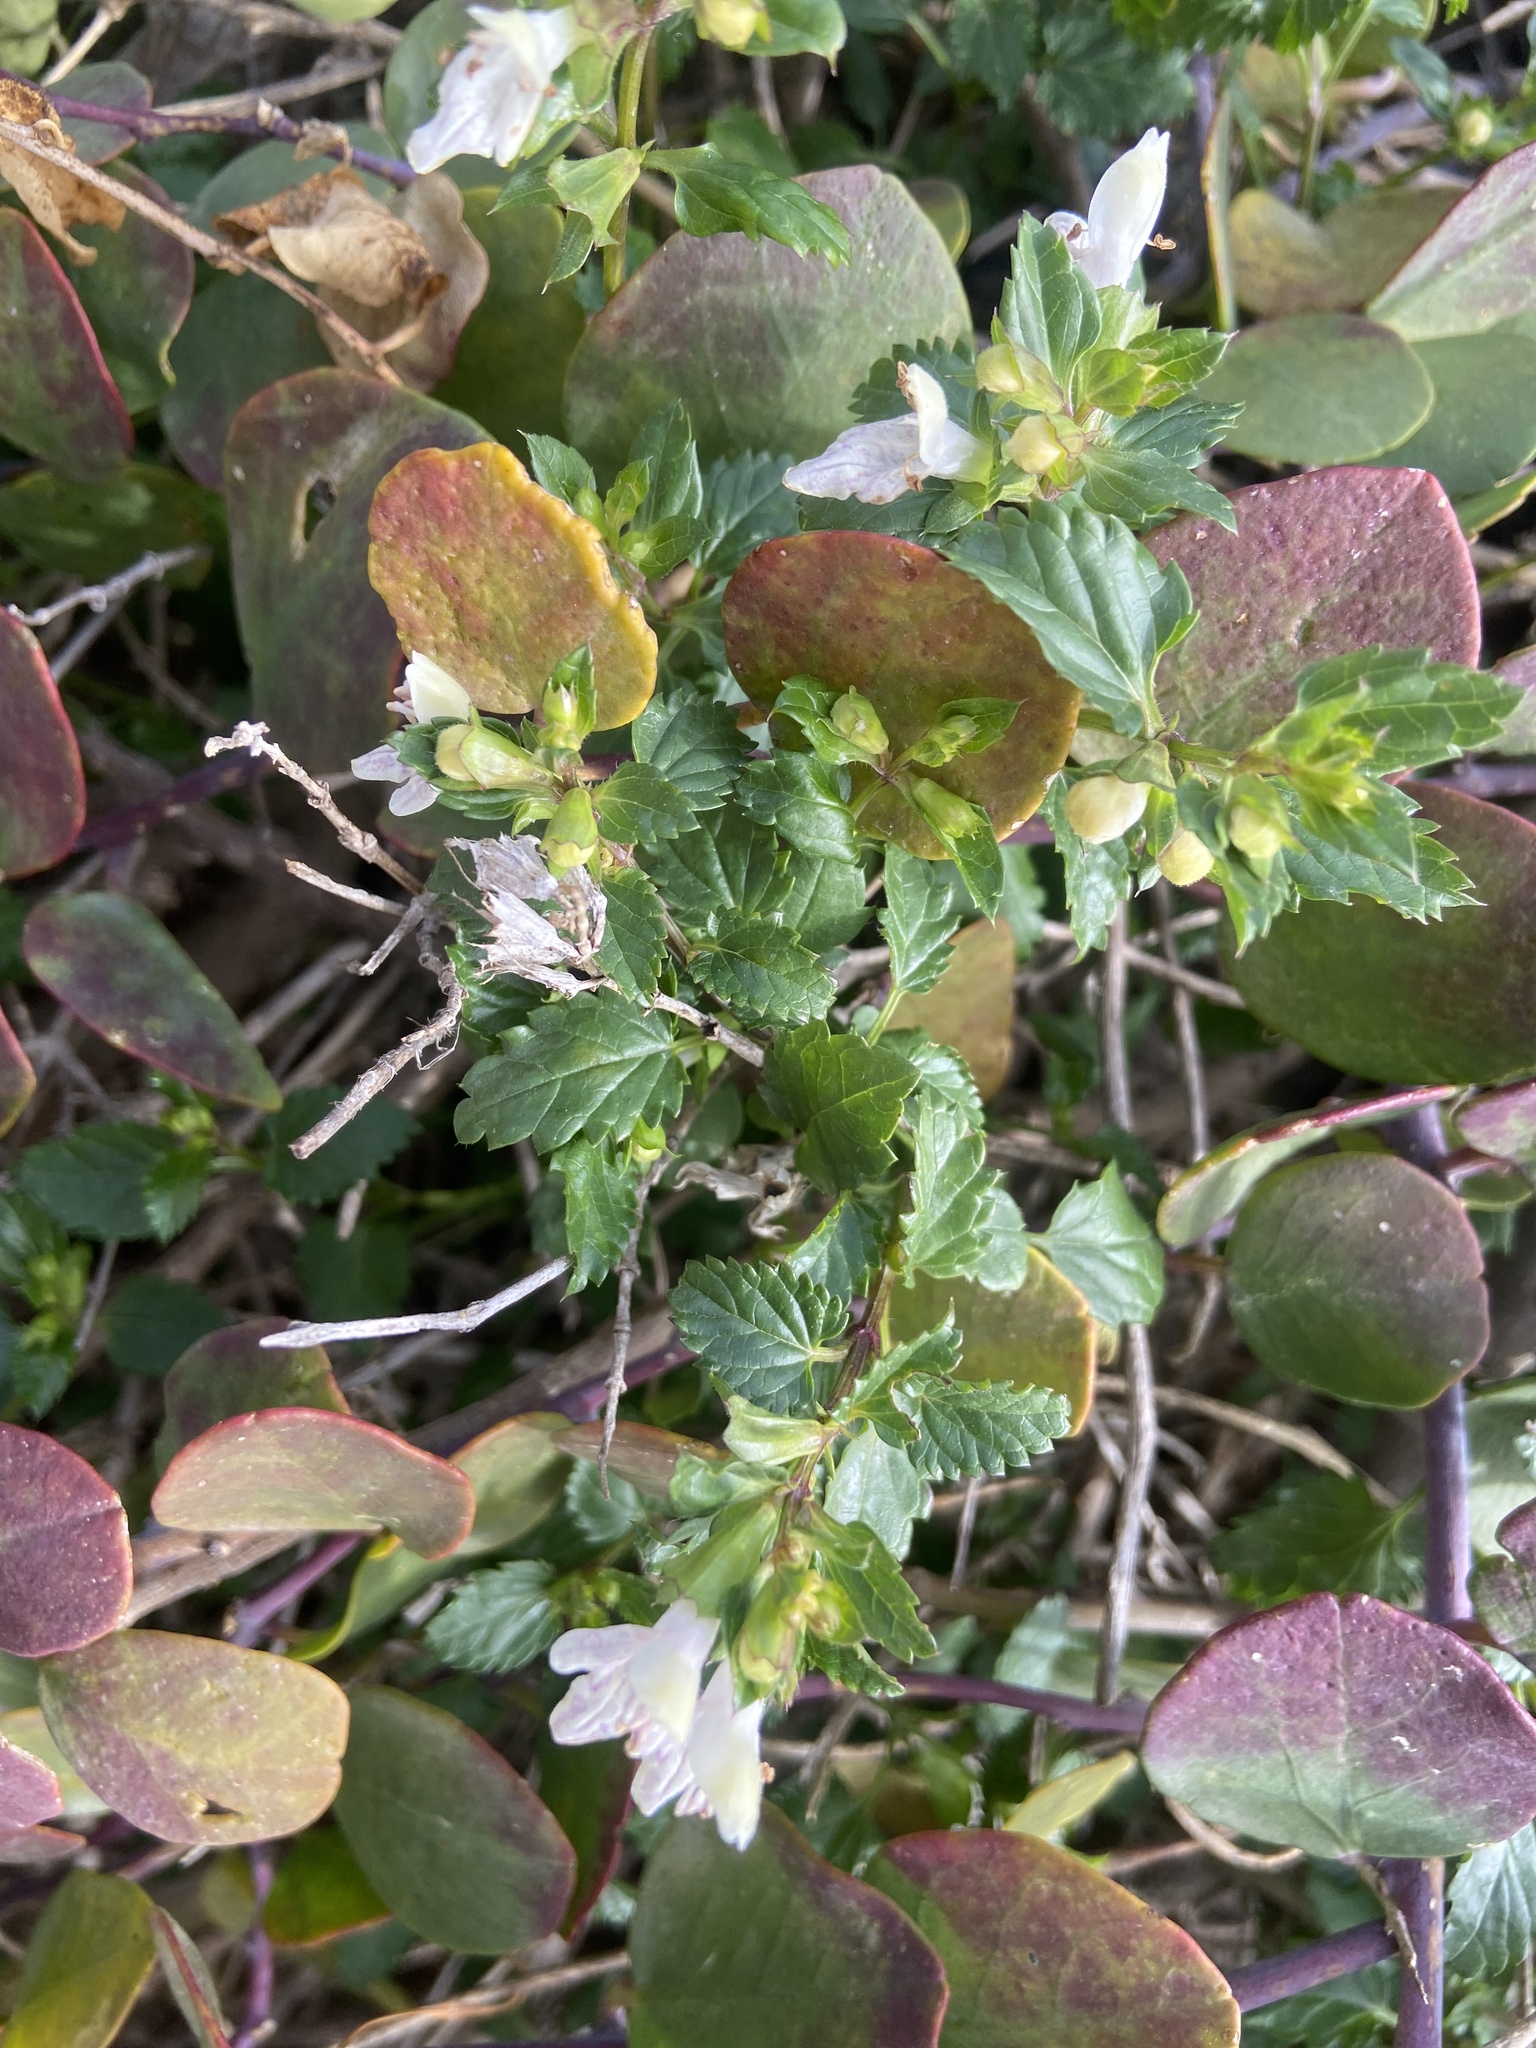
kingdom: Plantae
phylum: Tracheophyta
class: Magnoliopsida
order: Lamiales
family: Lamiaceae
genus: Prasium
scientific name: Prasium majus
